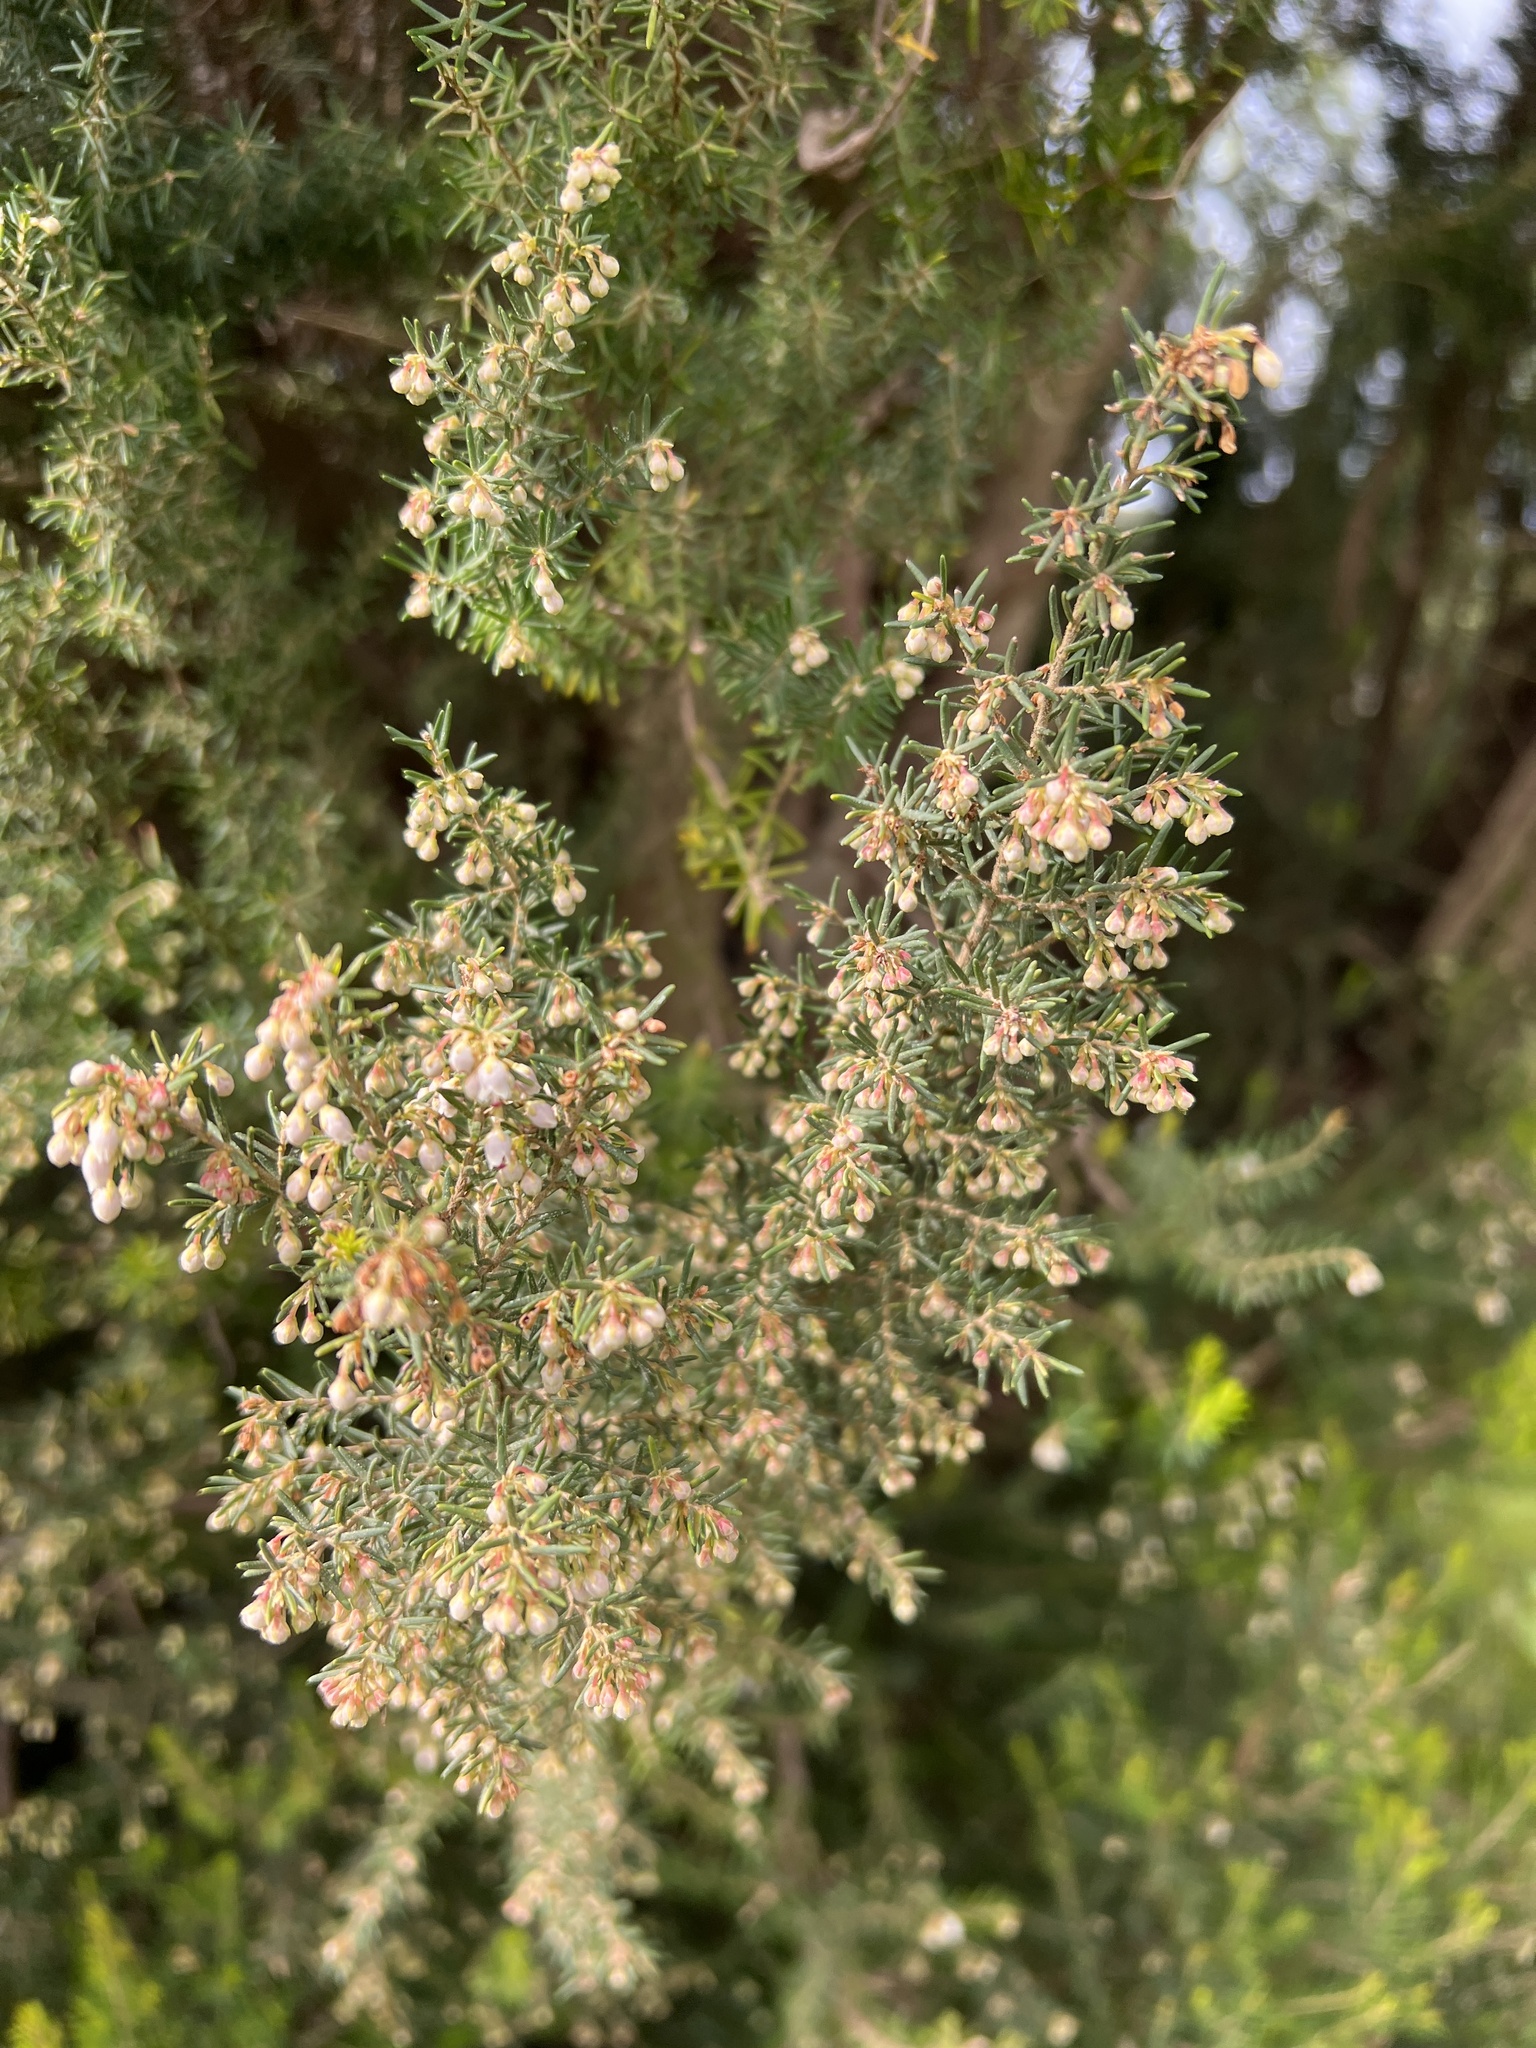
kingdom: Plantae
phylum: Tracheophyta
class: Magnoliopsida
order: Ericales
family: Ericaceae
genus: Erica
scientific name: Erica canariensis
